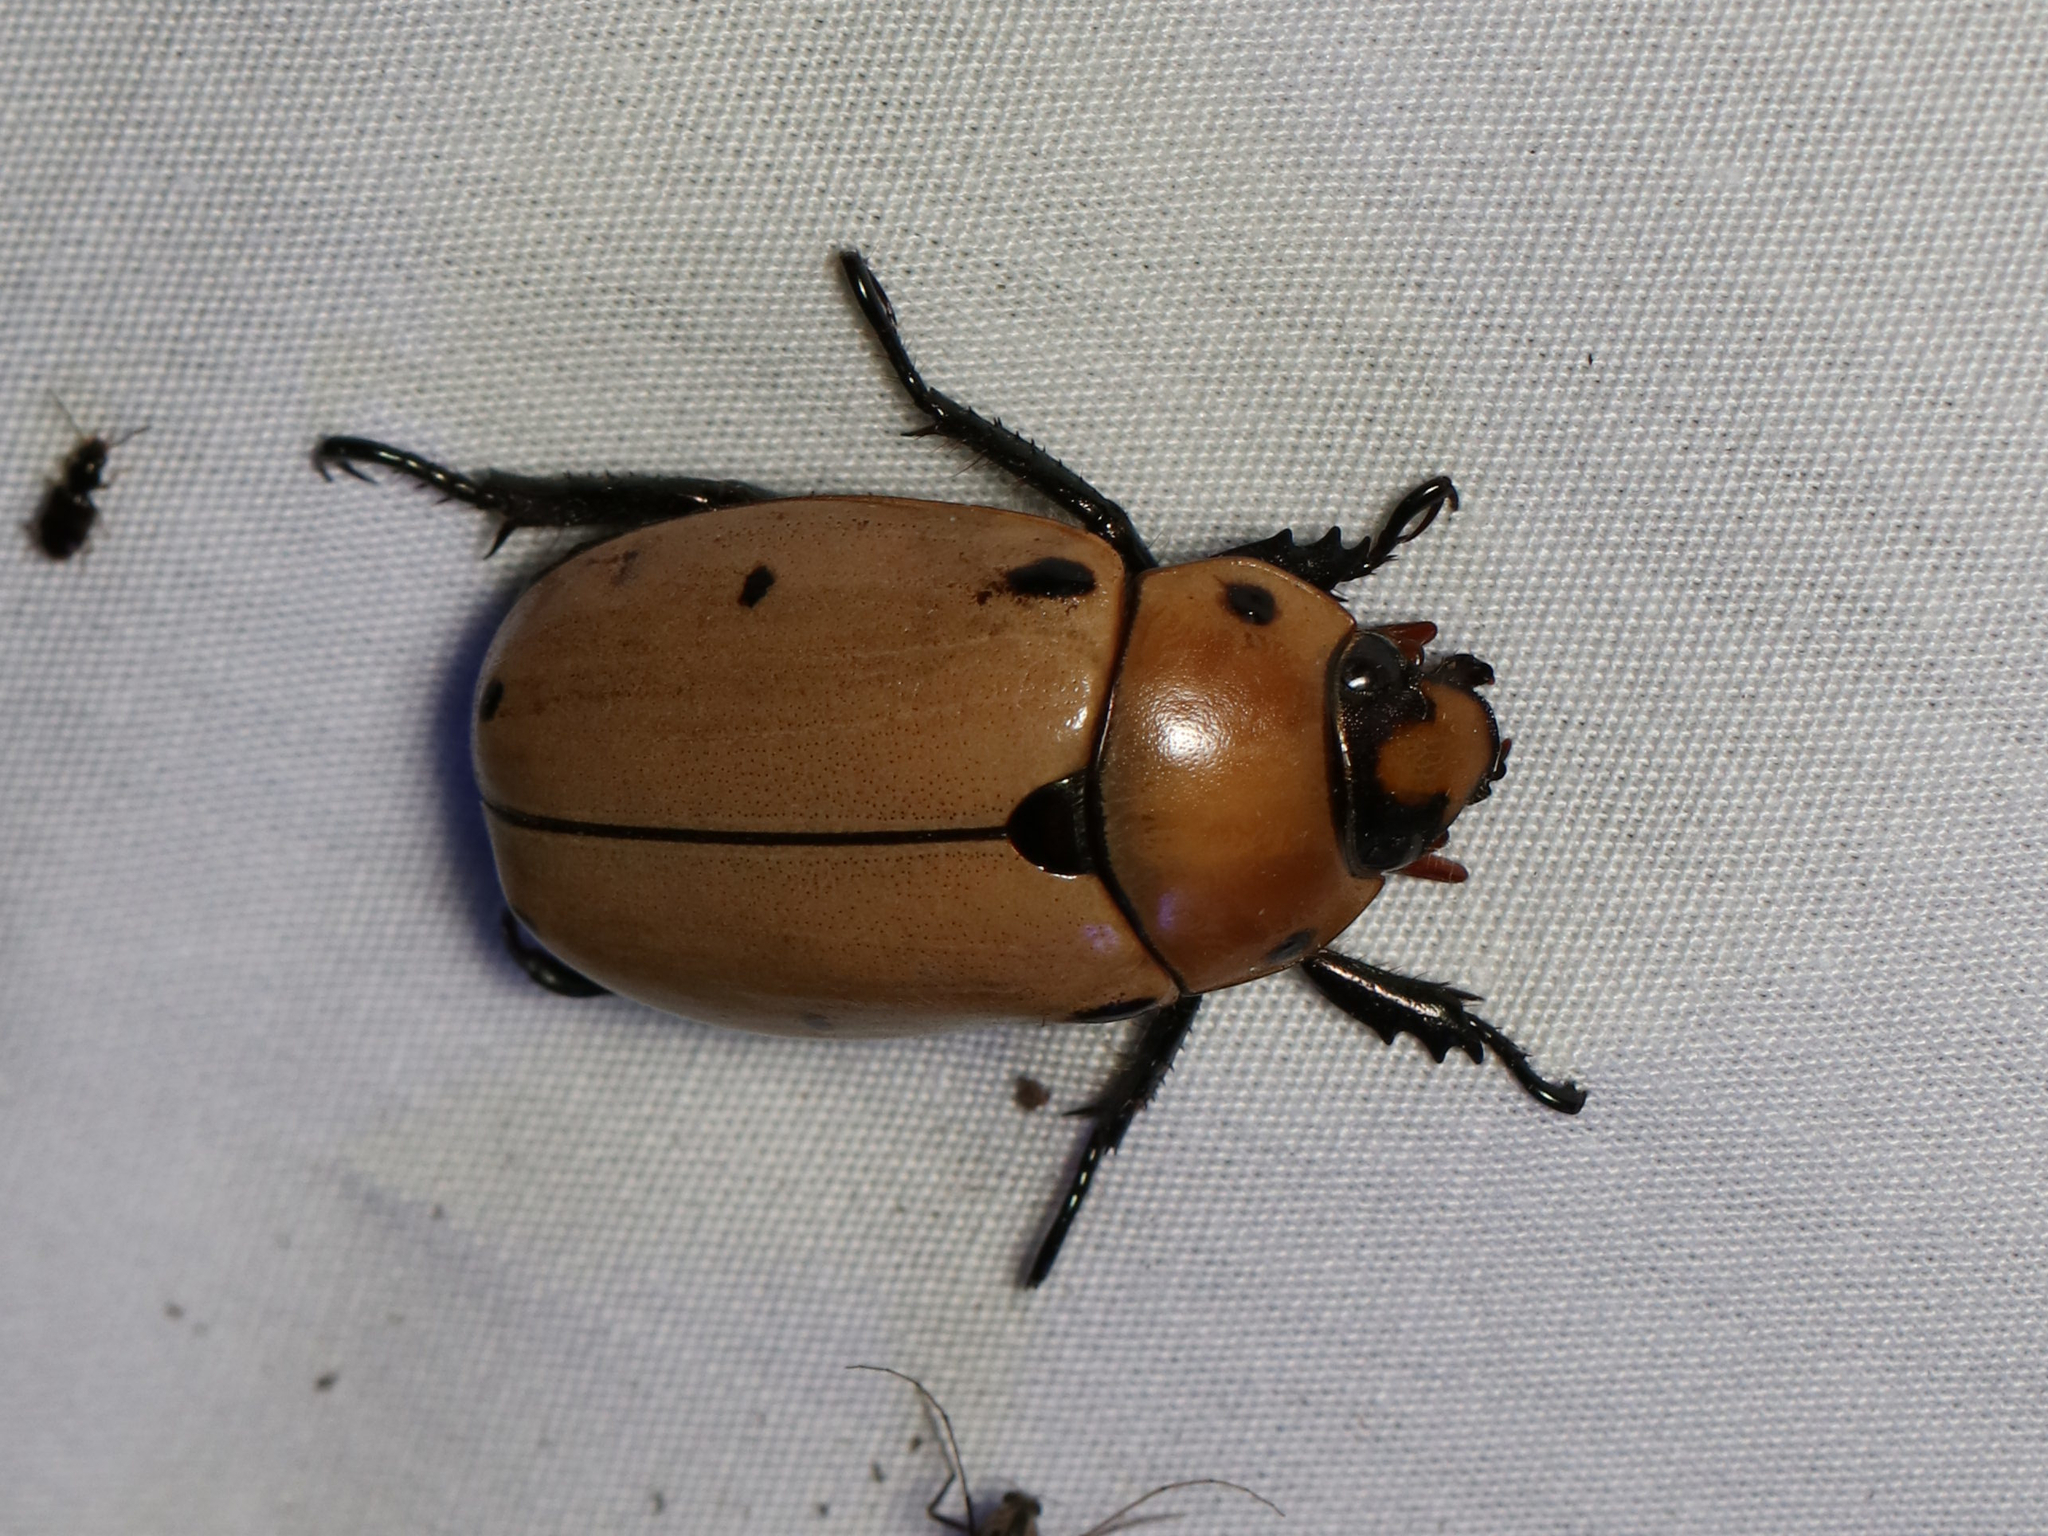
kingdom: Animalia
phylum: Arthropoda
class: Insecta
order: Coleoptera
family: Scarabaeidae
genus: Pelidnota
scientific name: Pelidnota punctata
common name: Grapevine beetle
